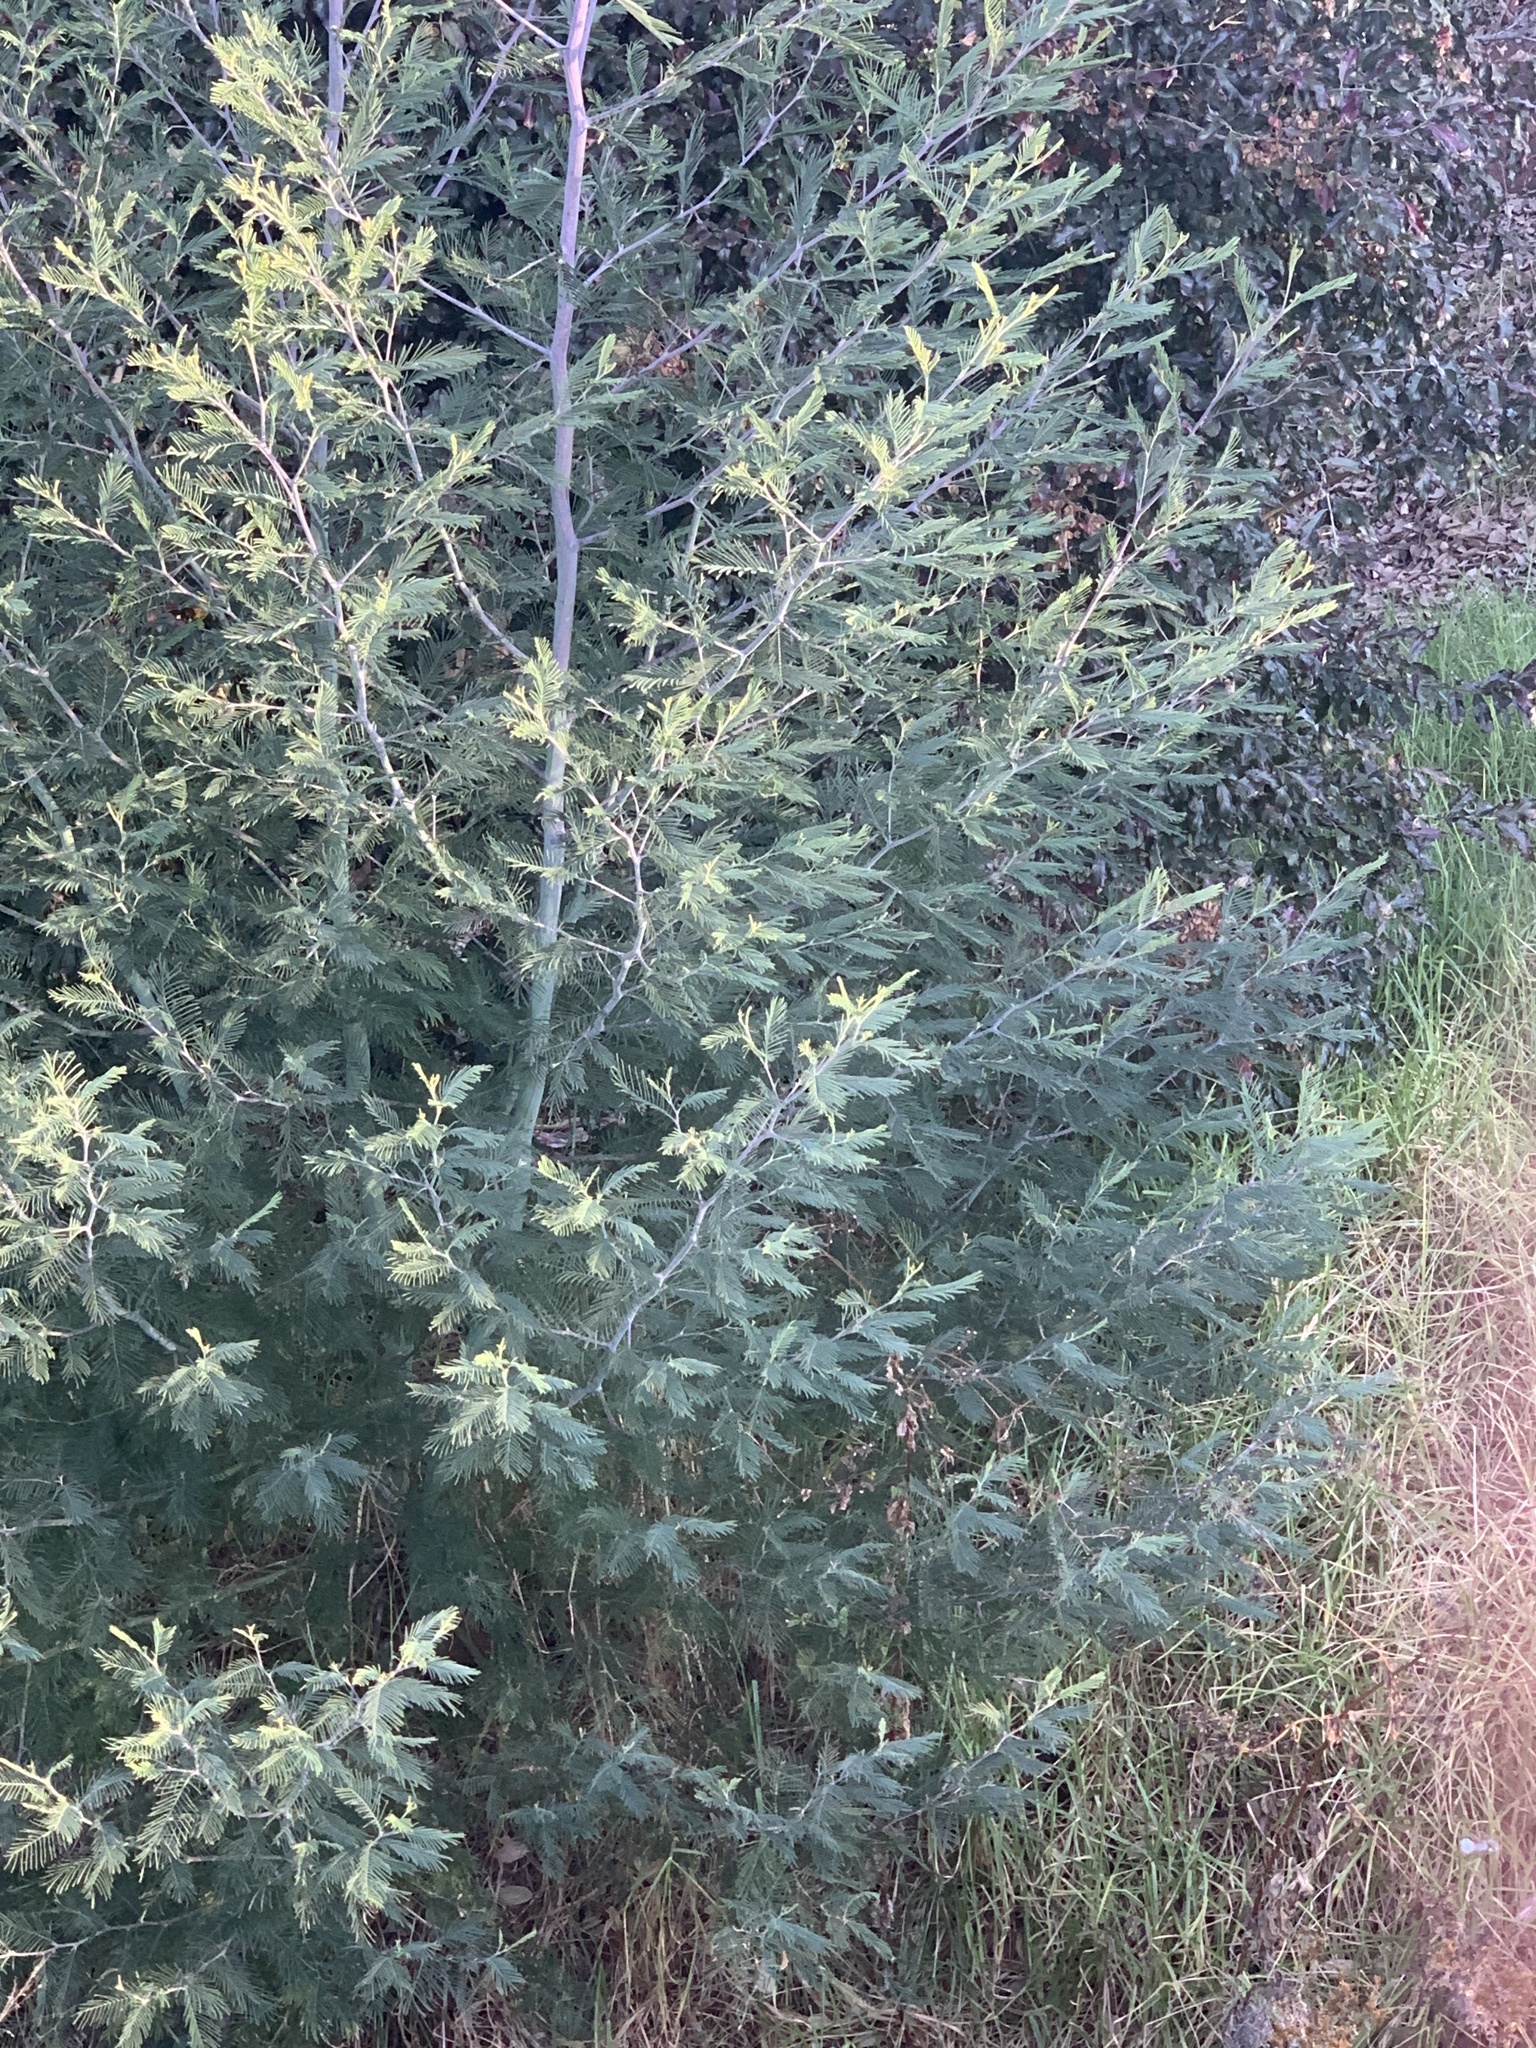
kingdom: Plantae
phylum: Tracheophyta
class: Magnoliopsida
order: Fabales
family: Fabaceae
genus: Acacia
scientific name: Acacia dealbata
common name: Silver wattle
